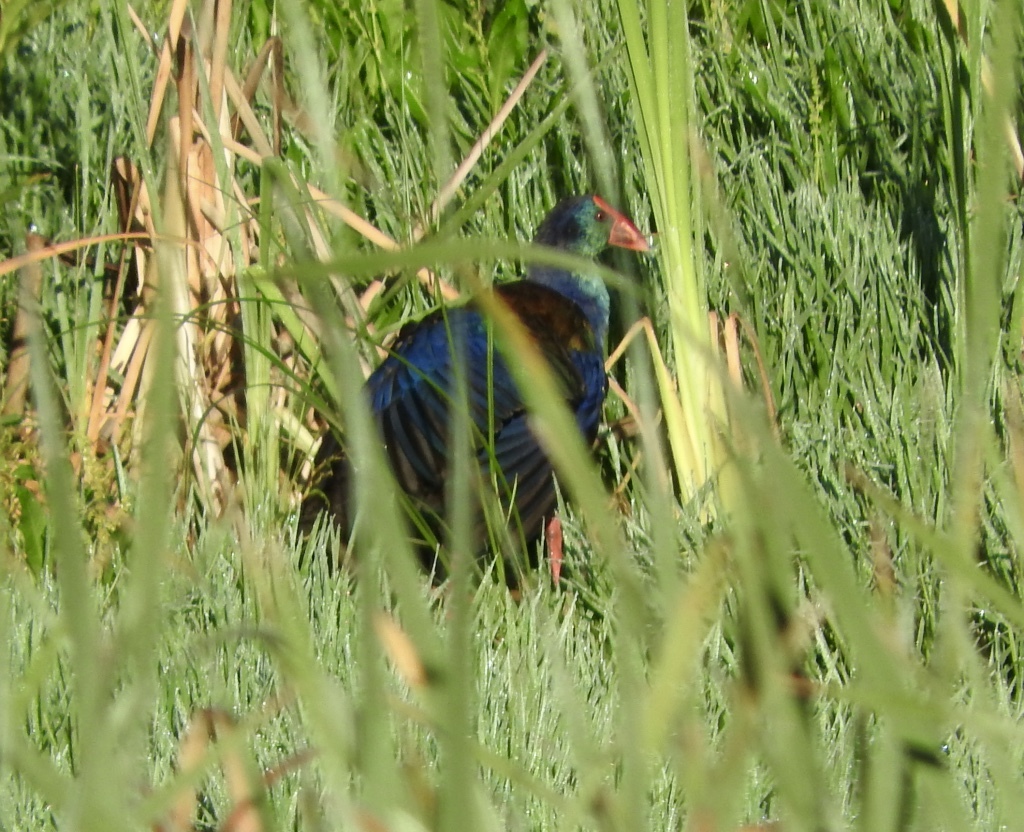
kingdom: Animalia
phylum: Chordata
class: Aves
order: Gruiformes
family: Rallidae
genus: Porphyrio
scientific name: Porphyrio porphyrio
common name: Purple swamphen
